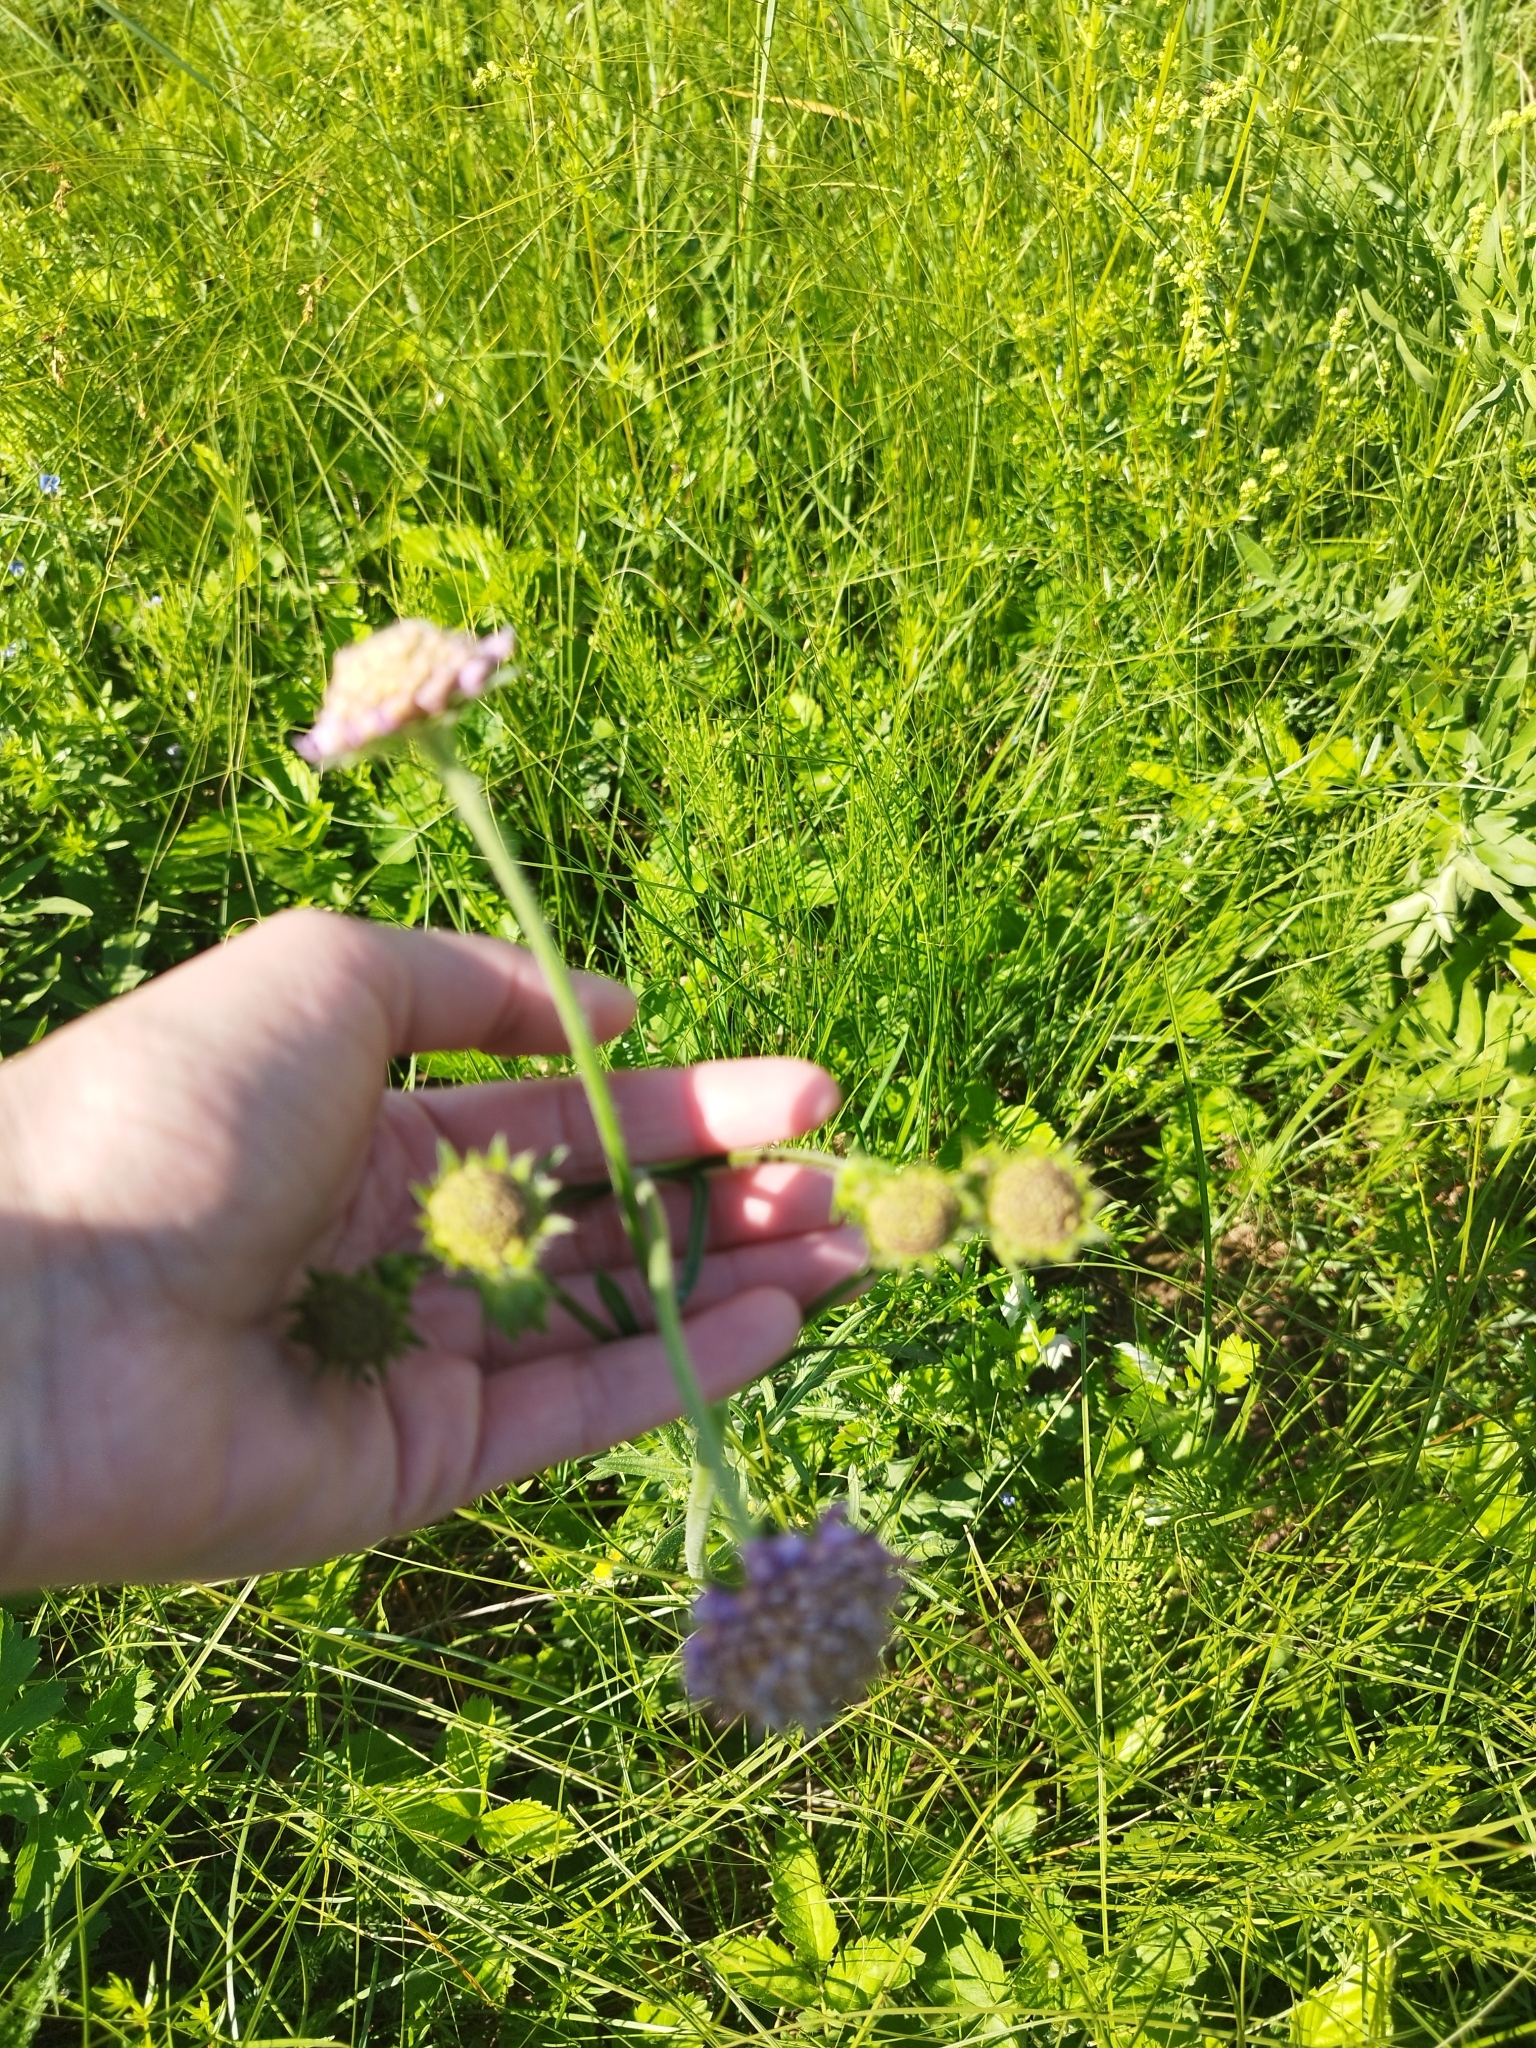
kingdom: Plantae
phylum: Tracheophyta
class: Magnoliopsida
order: Dipsacales
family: Caprifoliaceae
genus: Knautia
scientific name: Knautia arvensis
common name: Field scabiosa
